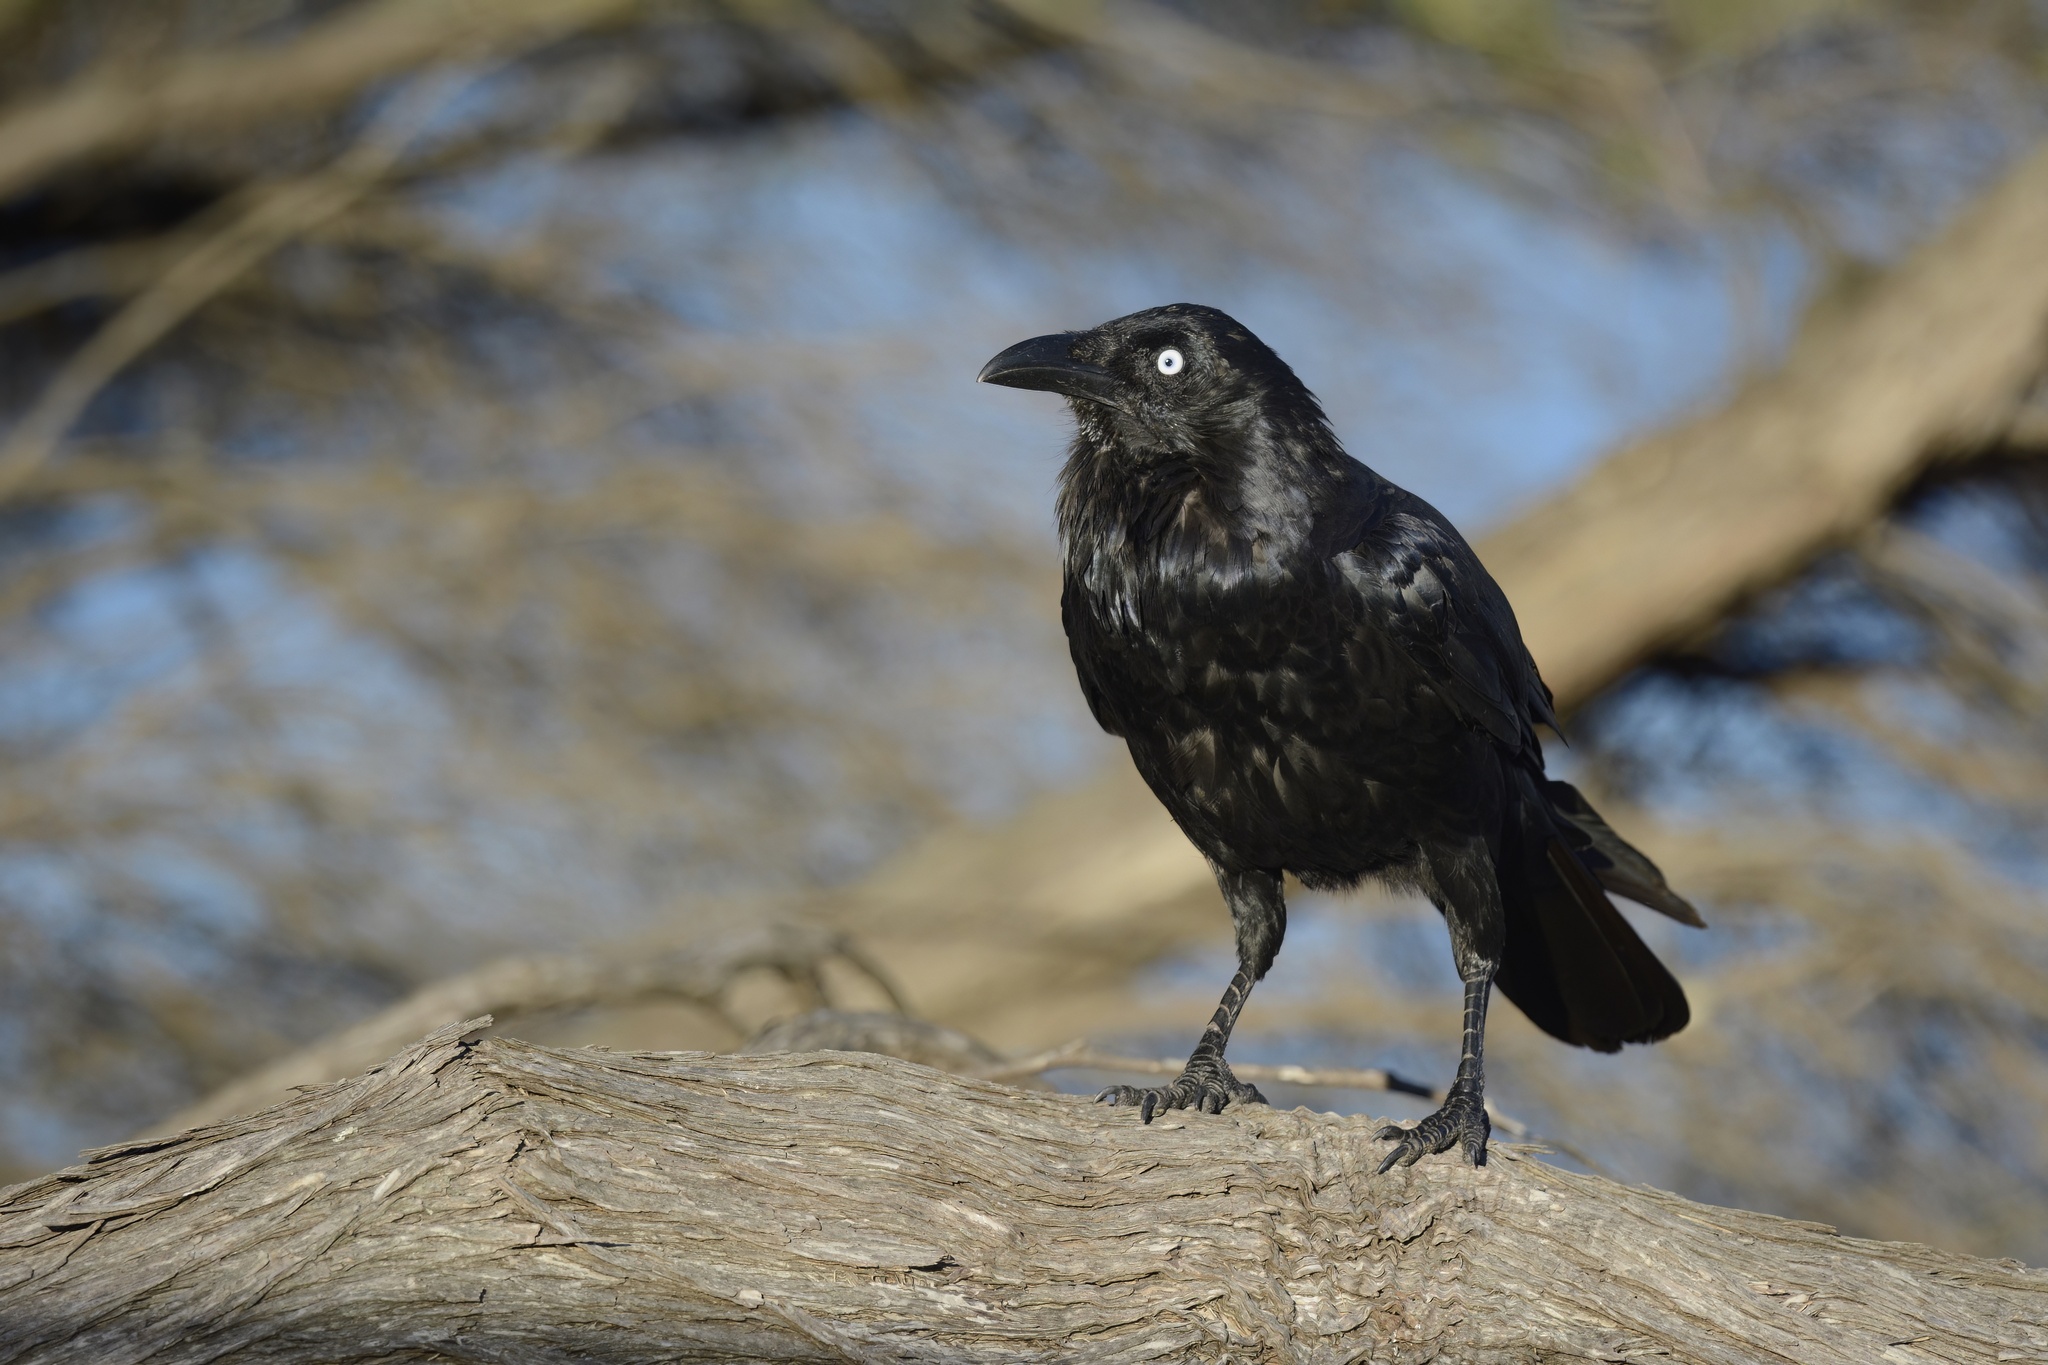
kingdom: Animalia
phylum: Chordata
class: Aves
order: Passeriformes
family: Corvidae
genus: Corvus
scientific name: Corvus coronoides
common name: Australian raven
